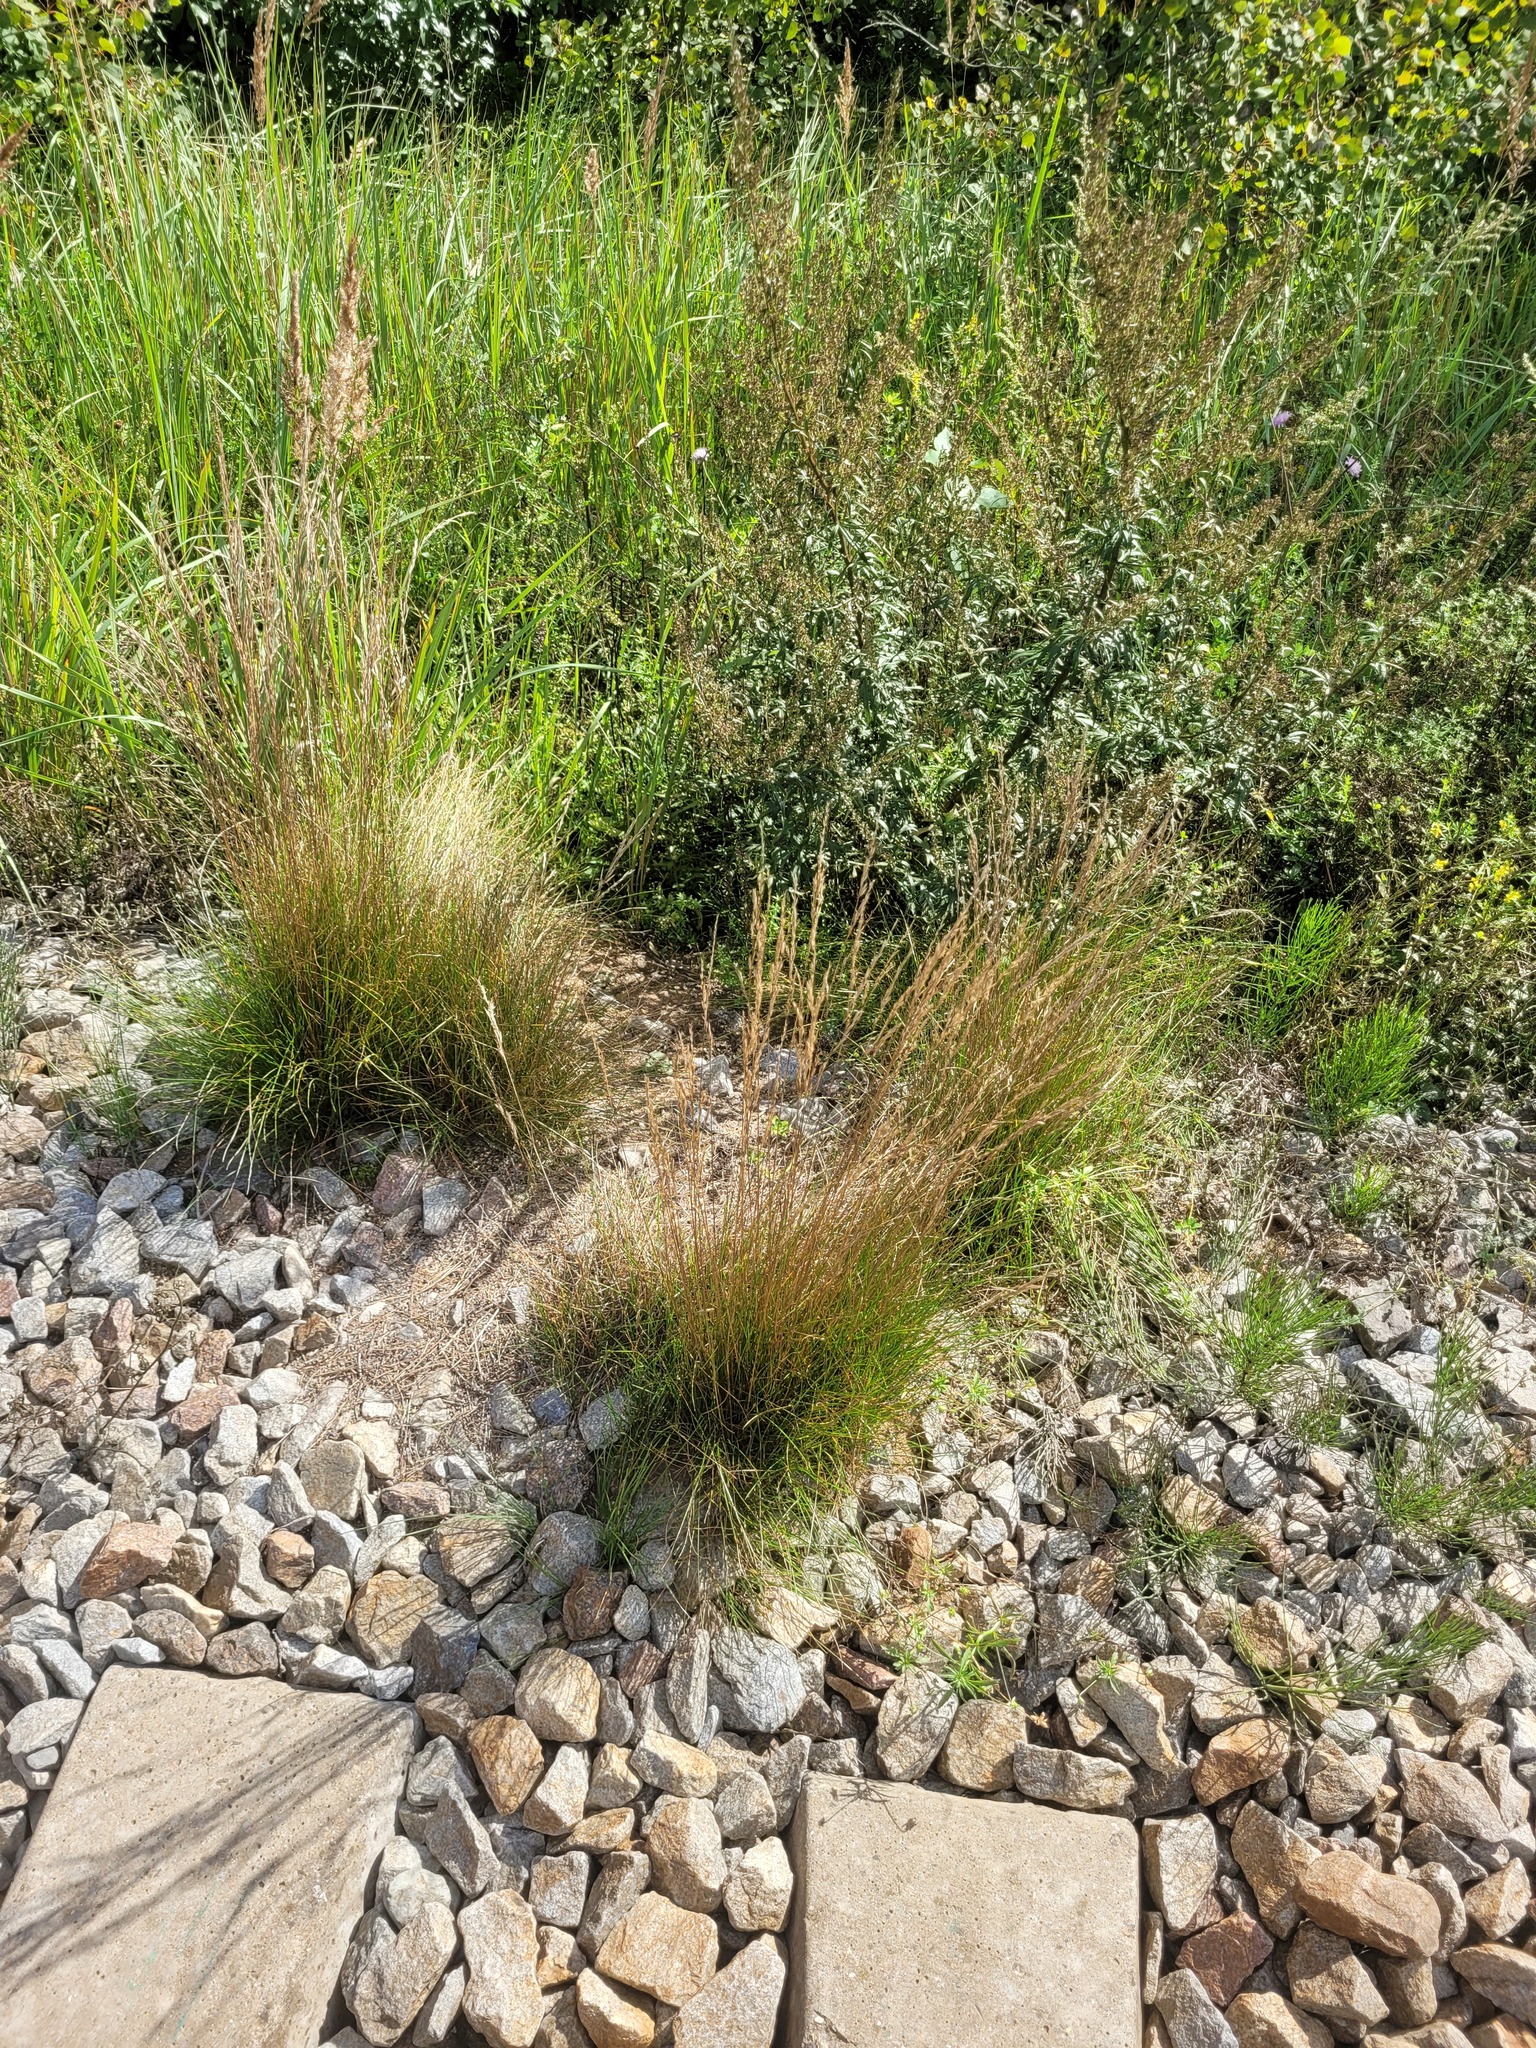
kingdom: Plantae
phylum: Tracheophyta
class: Liliopsida
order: Poales
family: Poaceae
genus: Festuca
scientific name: Festuca rubra
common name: Red fescue
